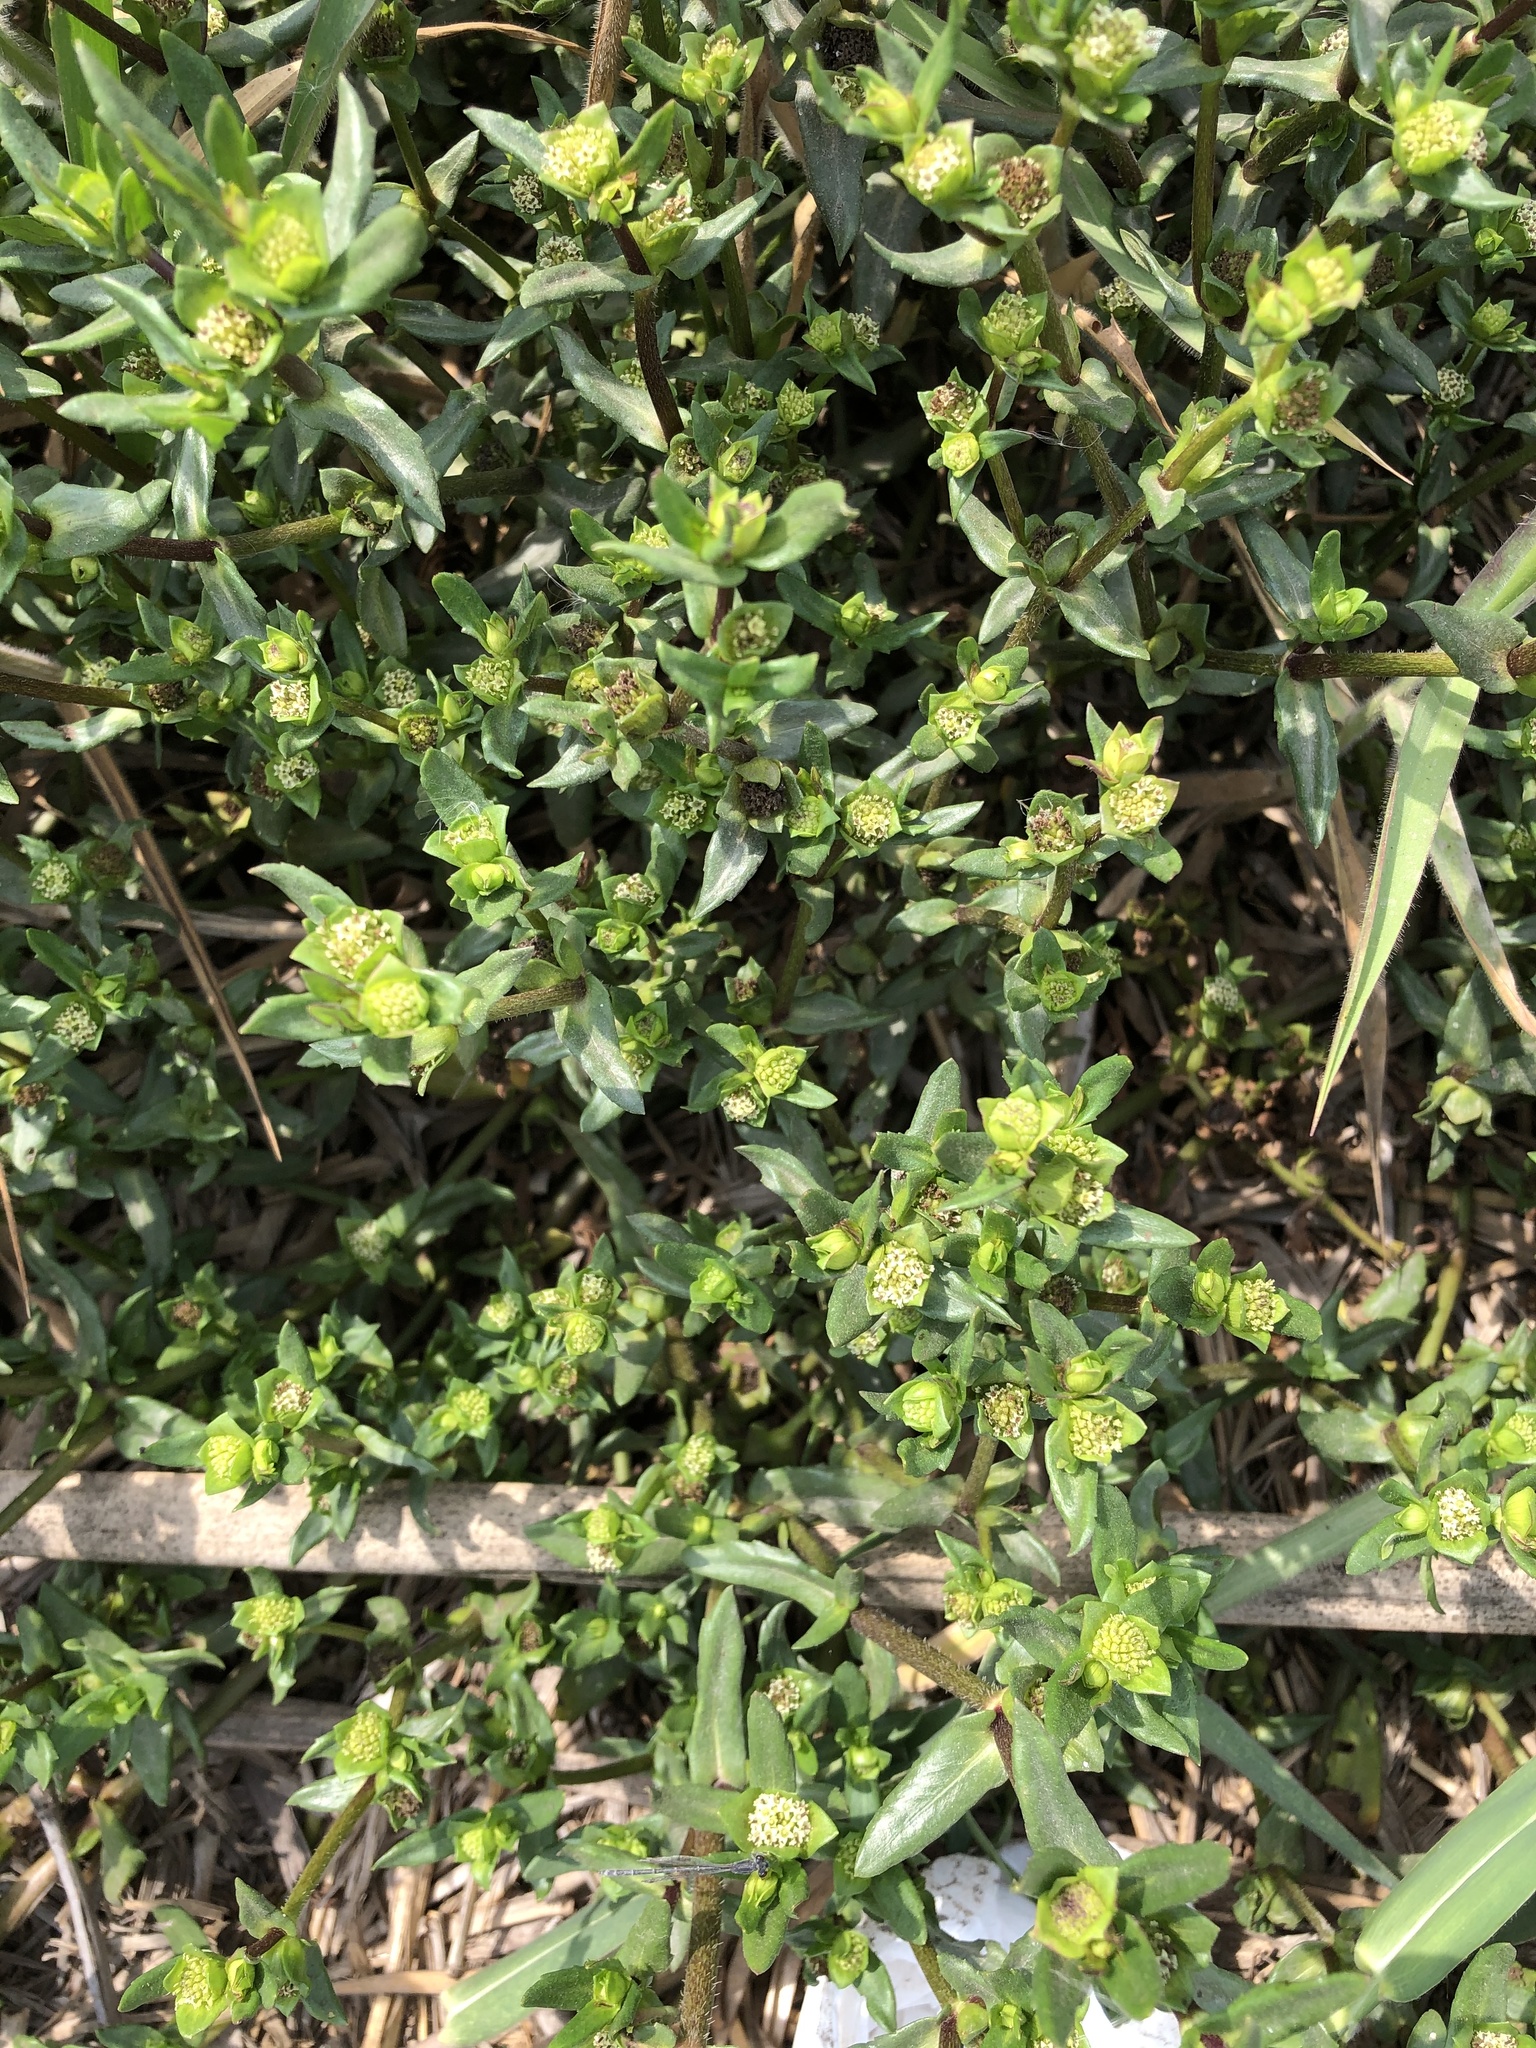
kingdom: Plantae
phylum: Tracheophyta
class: Magnoliopsida
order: Asterales
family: Asteraceae
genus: Enydra
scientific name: Enydra sessilifolia
